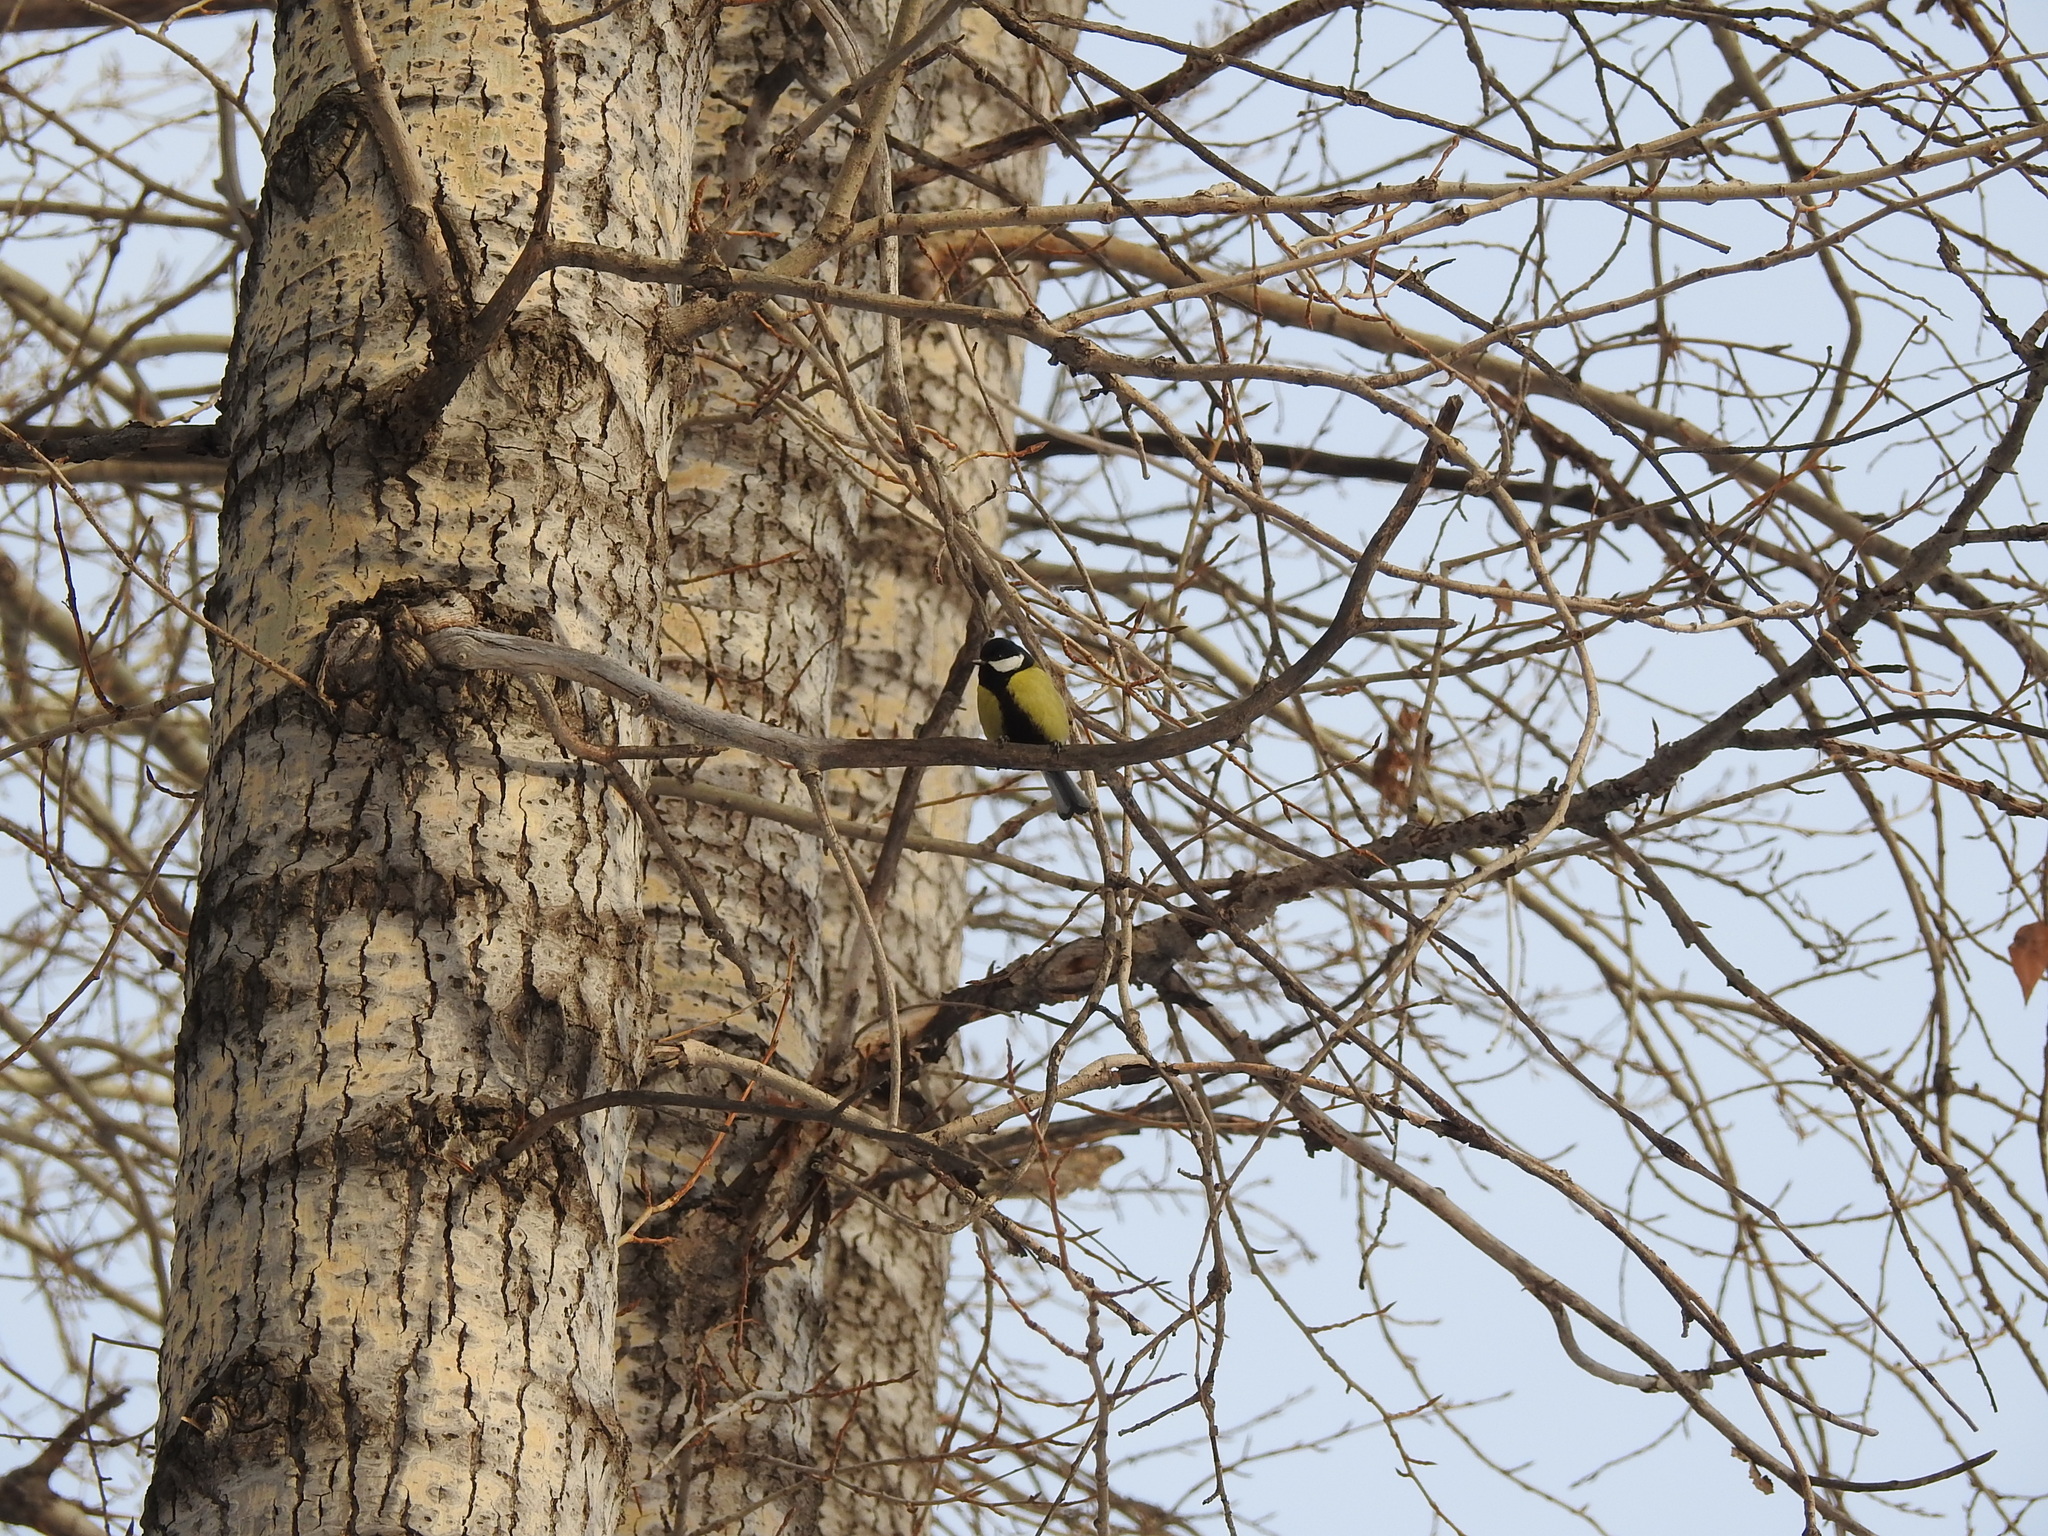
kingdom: Animalia
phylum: Chordata
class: Aves
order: Passeriformes
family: Paridae
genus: Parus
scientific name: Parus major
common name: Great tit
